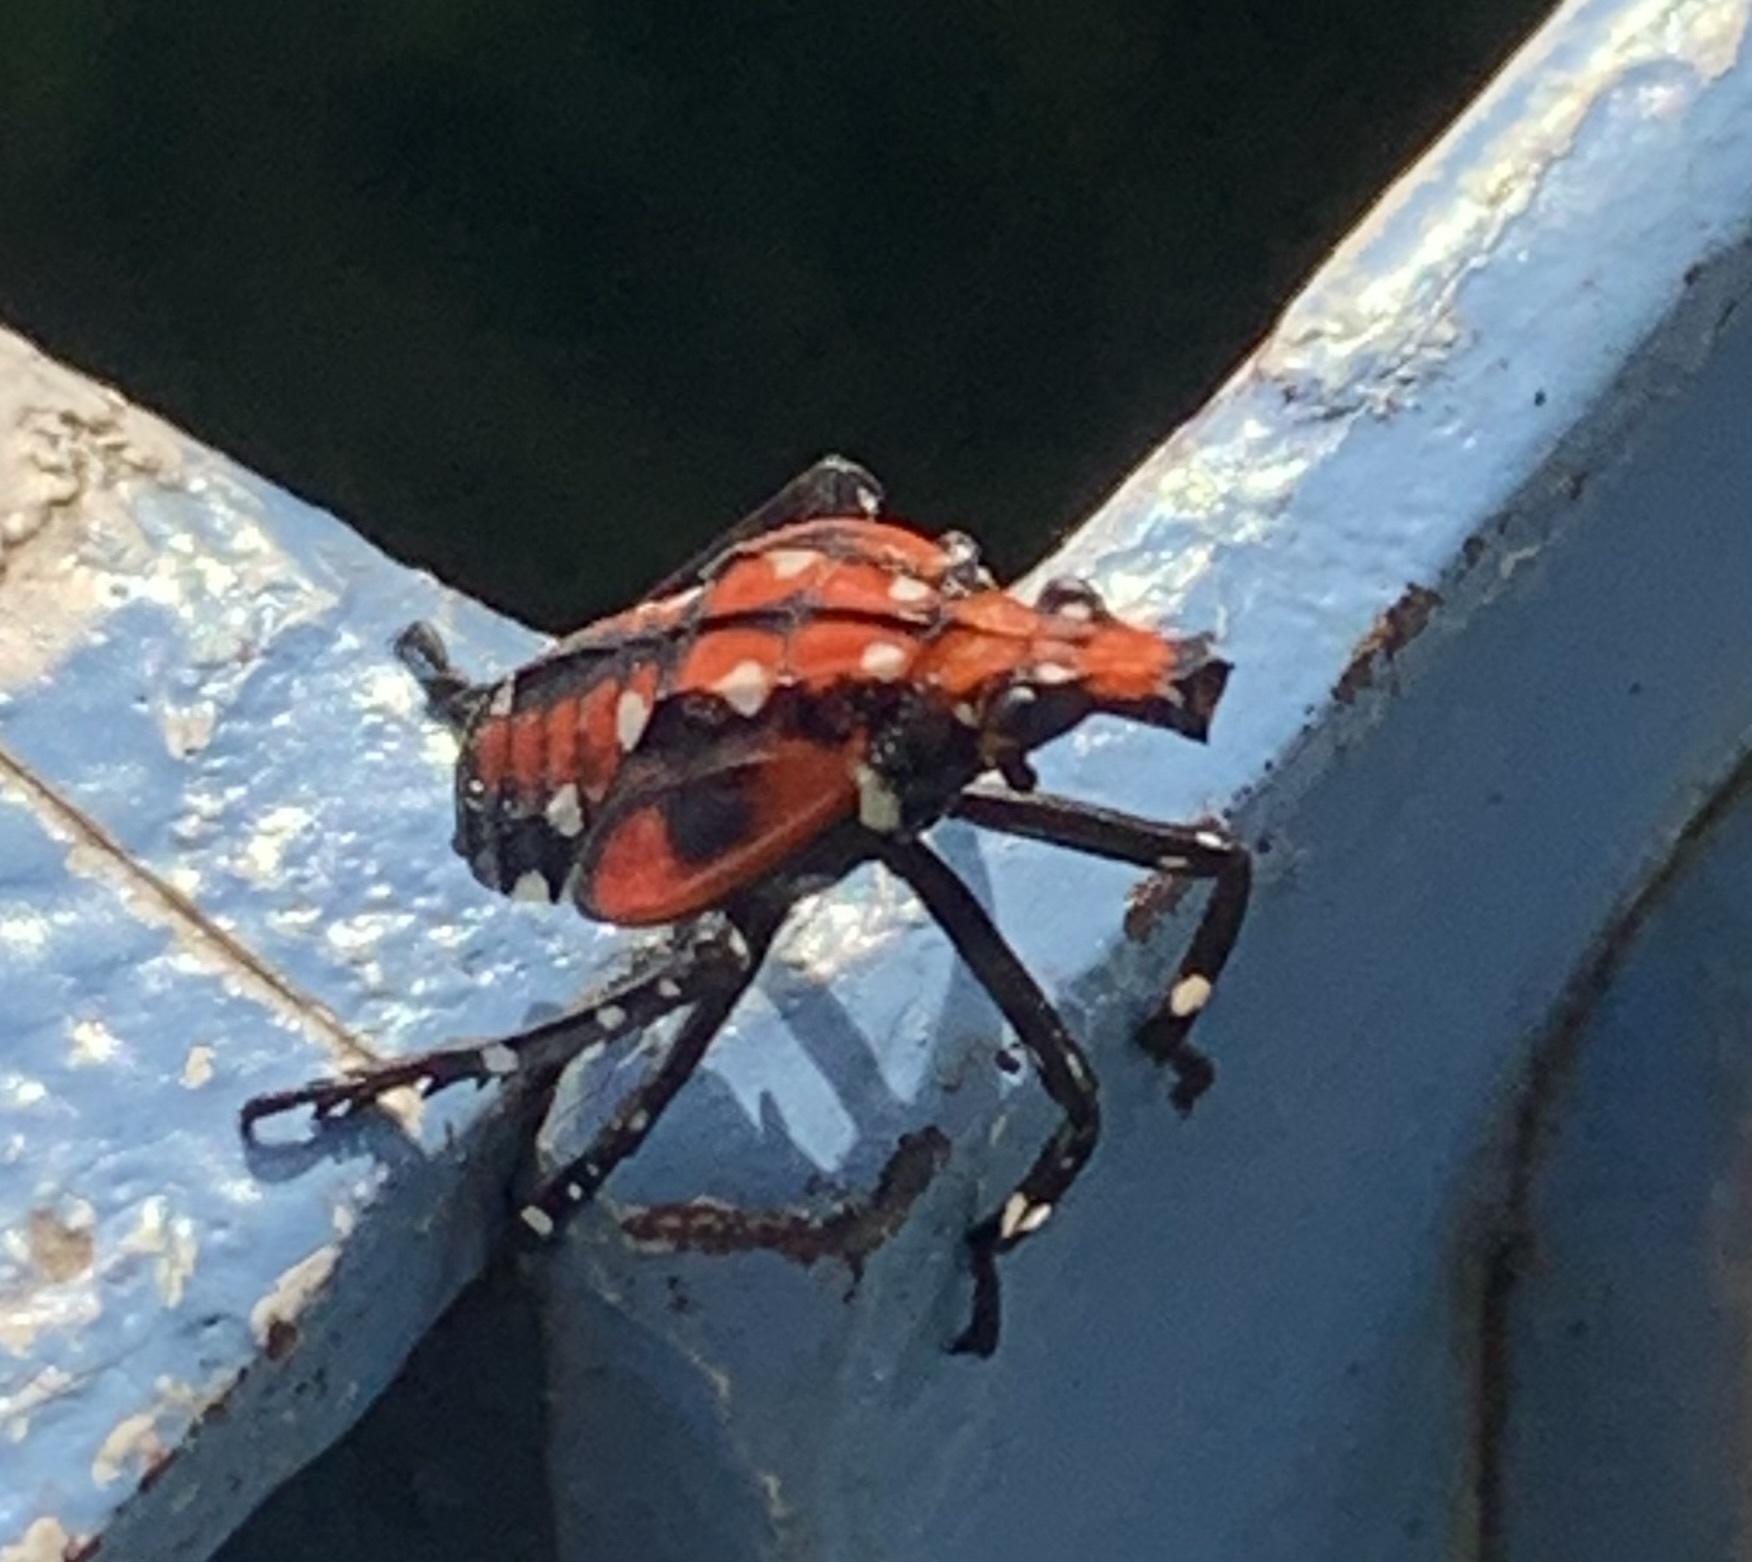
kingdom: Animalia
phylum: Arthropoda
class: Insecta
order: Hemiptera
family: Fulgoridae
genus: Lycorma
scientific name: Lycorma delicatula
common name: Spotted lanternfly
